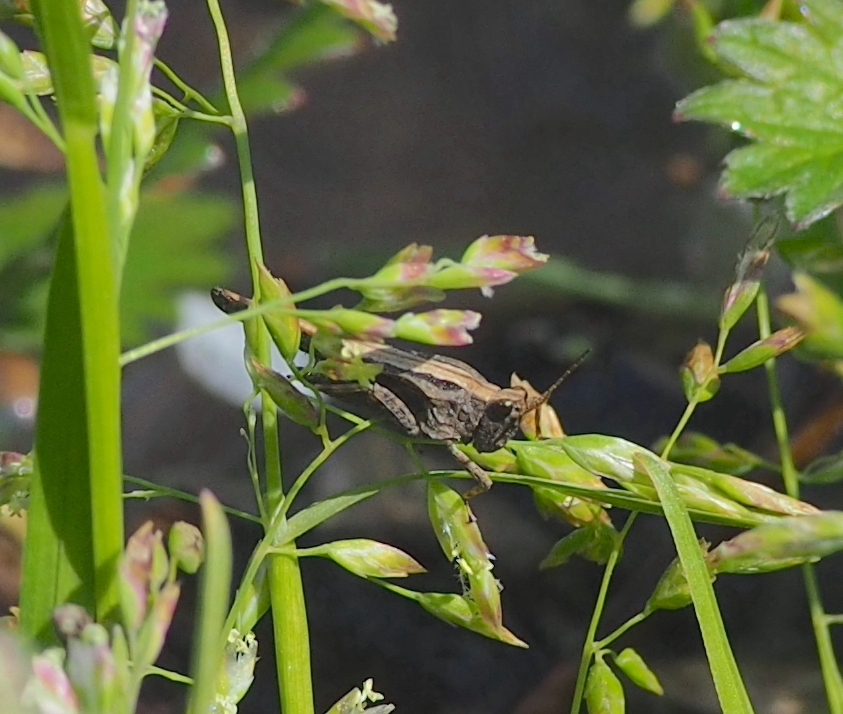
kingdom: Animalia
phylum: Arthropoda
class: Insecta
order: Orthoptera
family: Tetrigidae
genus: Tetrix
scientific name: Tetrix subulata
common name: Slender ground-hopper
